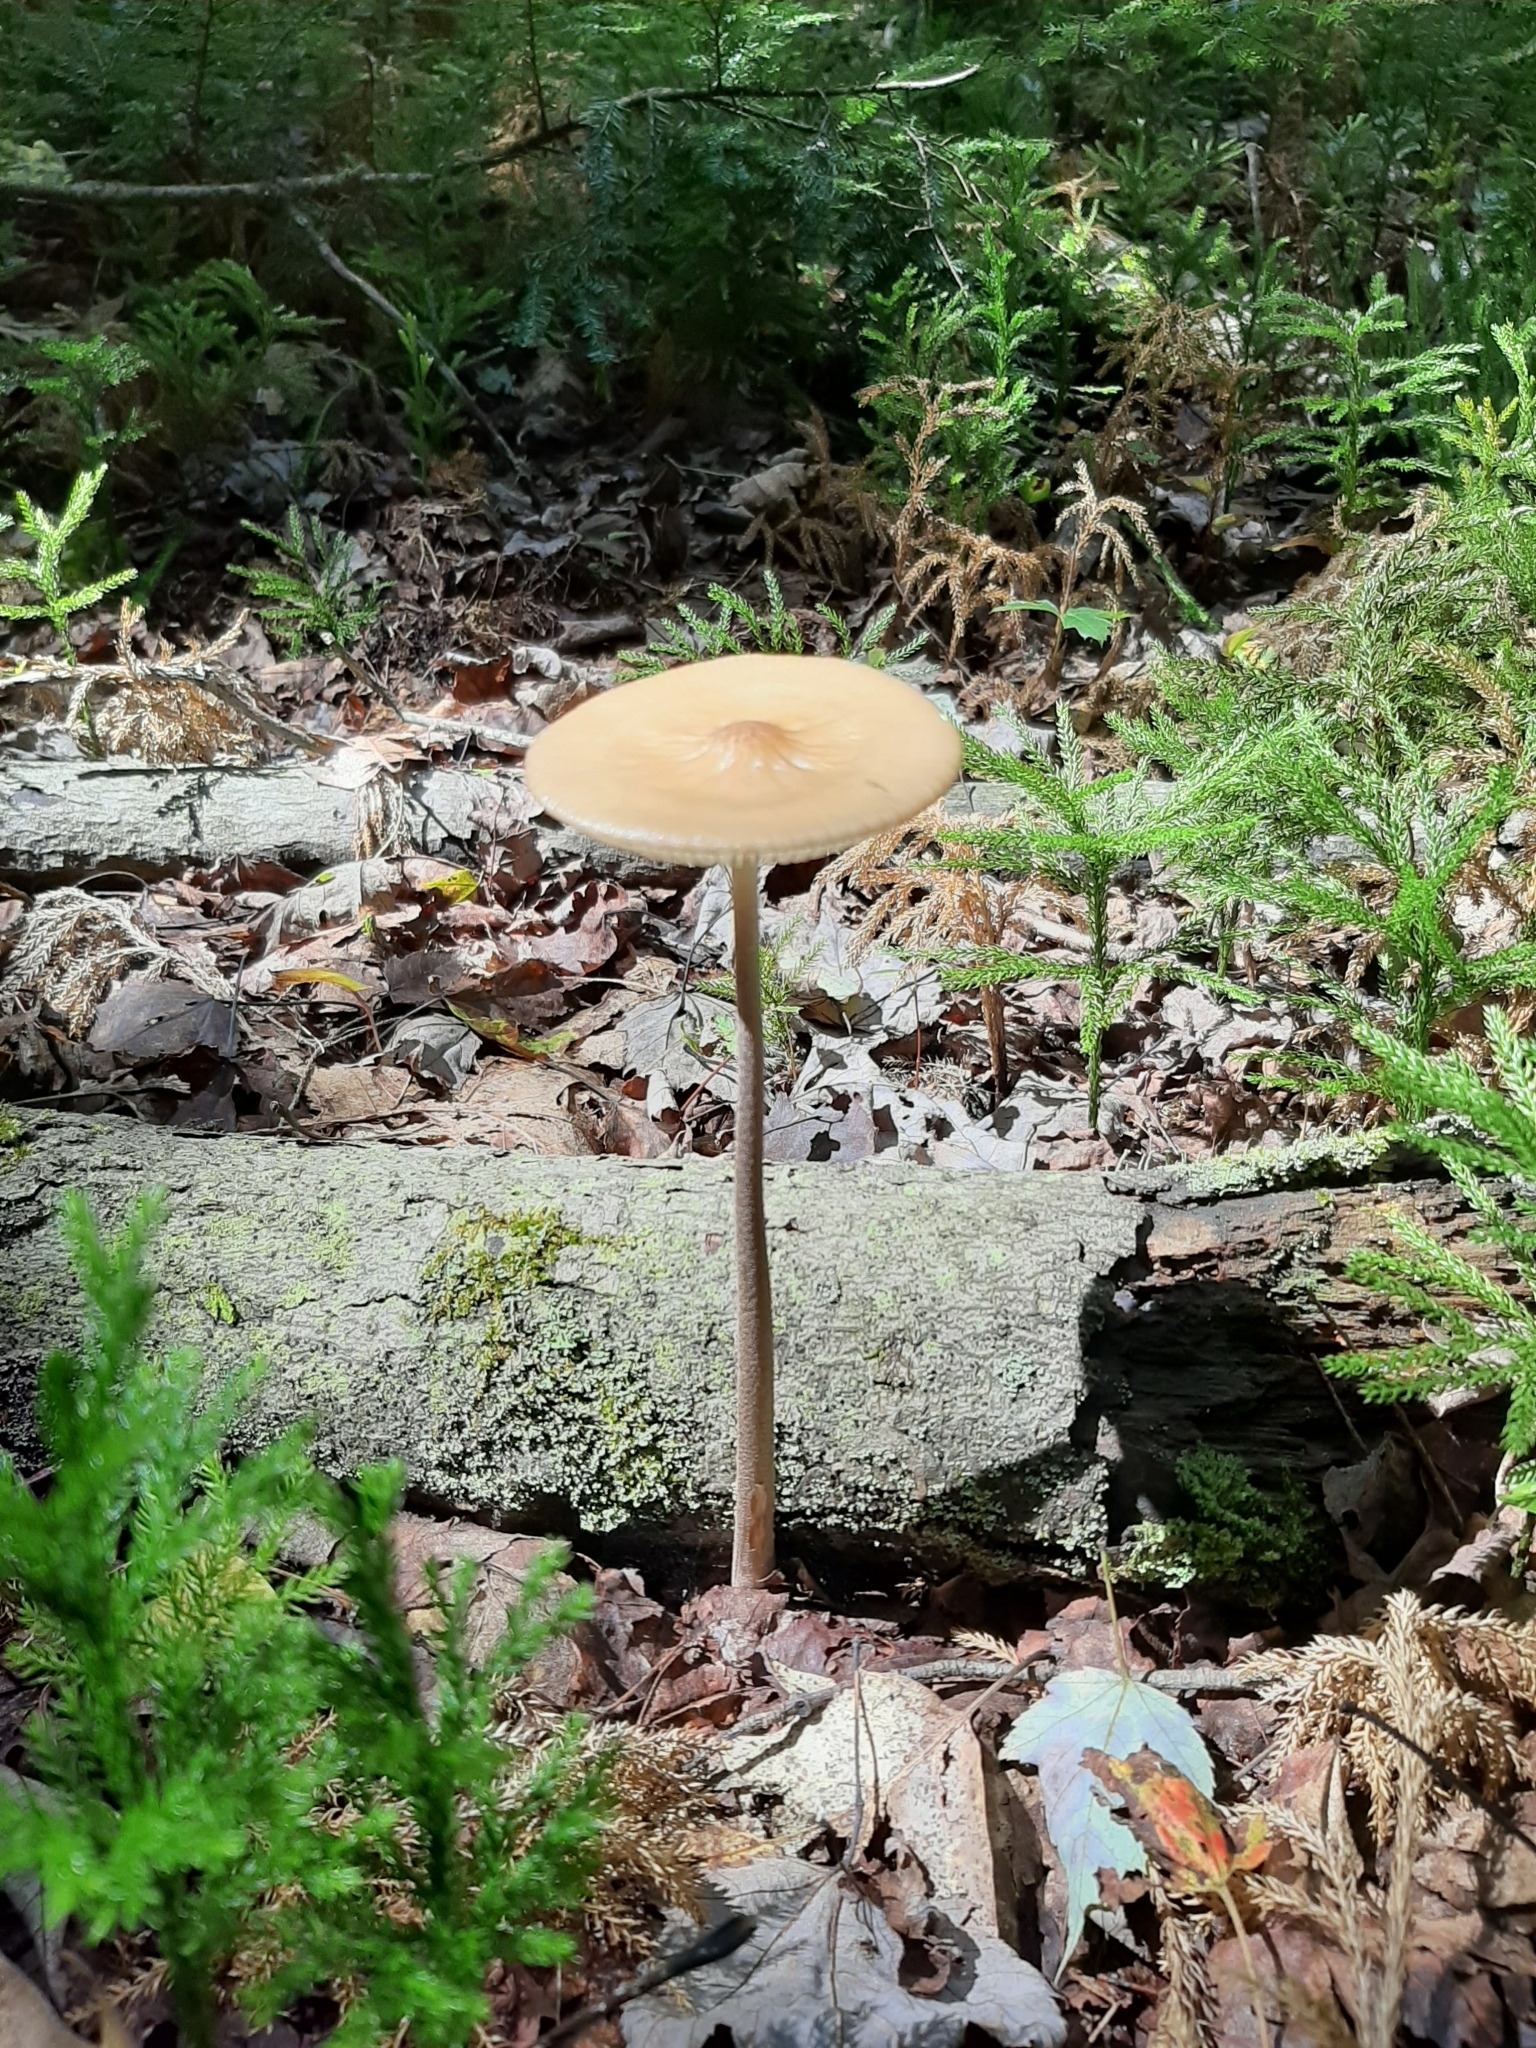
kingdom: Fungi
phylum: Basidiomycota
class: Agaricomycetes
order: Agaricales
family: Physalacriaceae
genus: Hymenopellis
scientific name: Hymenopellis furfuracea
